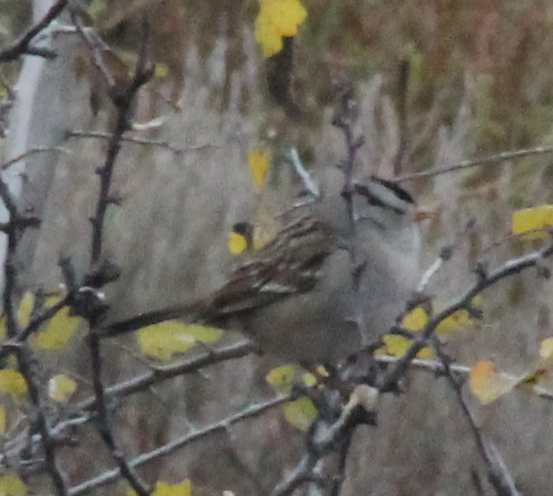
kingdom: Animalia
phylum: Chordata
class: Aves
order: Passeriformes
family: Passerellidae
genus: Zonotrichia
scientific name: Zonotrichia leucophrys
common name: White-crowned sparrow
